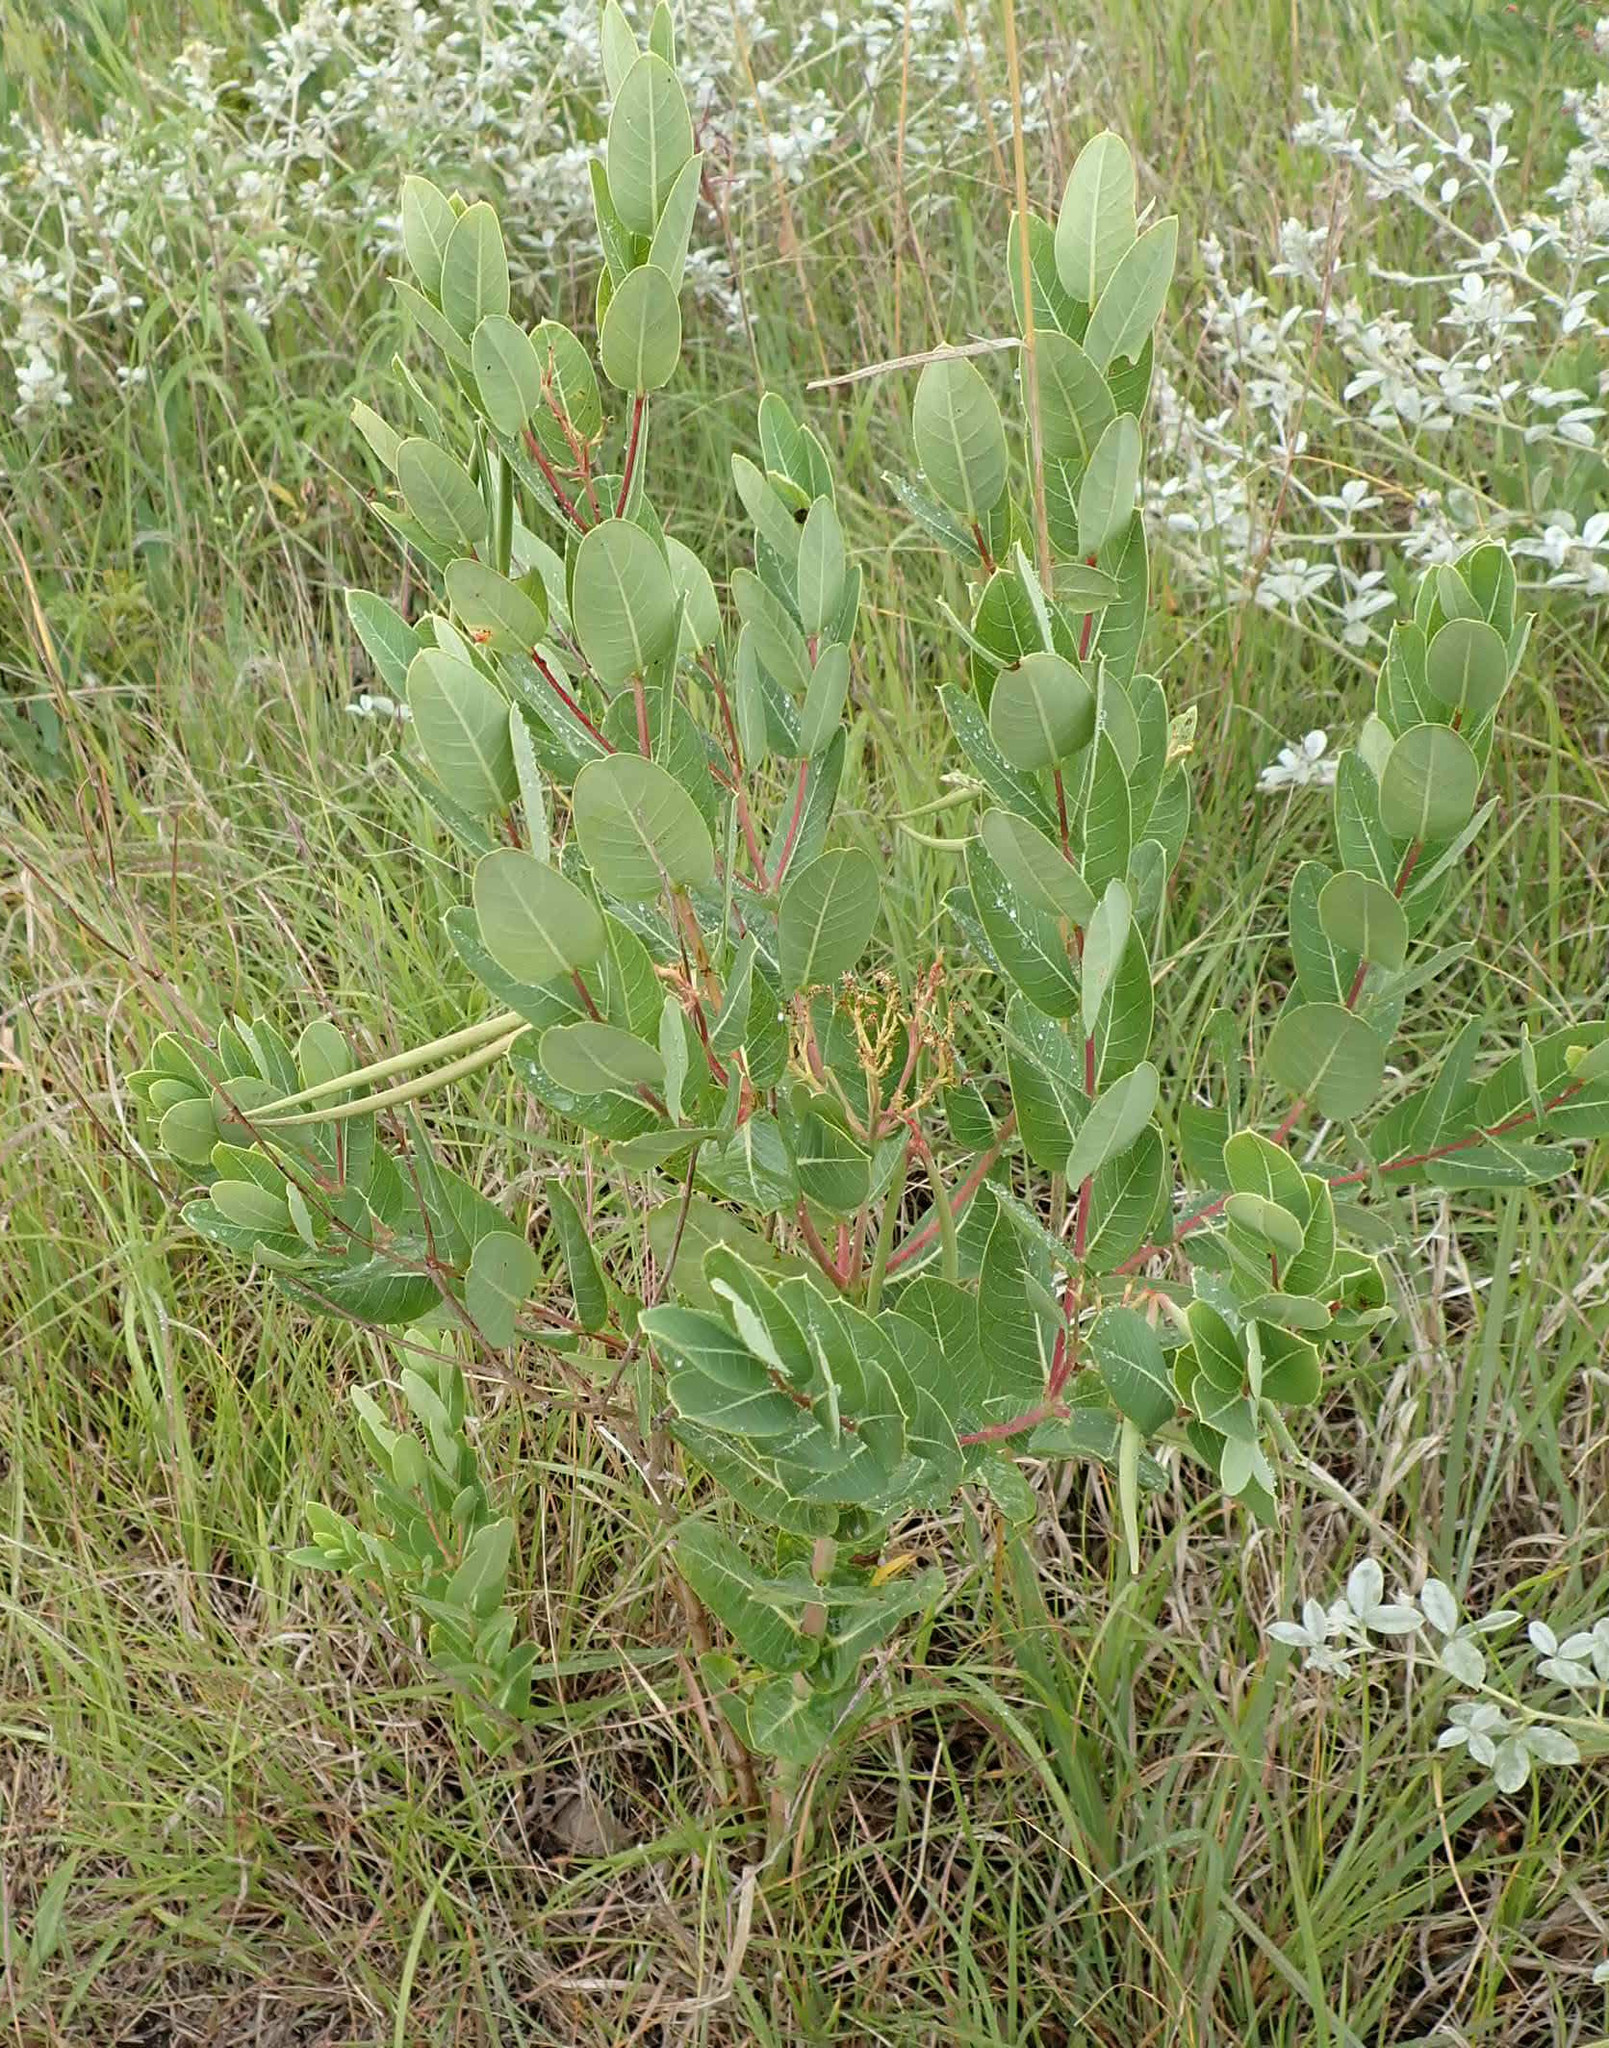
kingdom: Plantae
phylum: Tracheophyta
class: Magnoliopsida
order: Gentianales
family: Apocynaceae
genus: Apocynum
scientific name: Apocynum cannabinum
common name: Hemp dogbane
